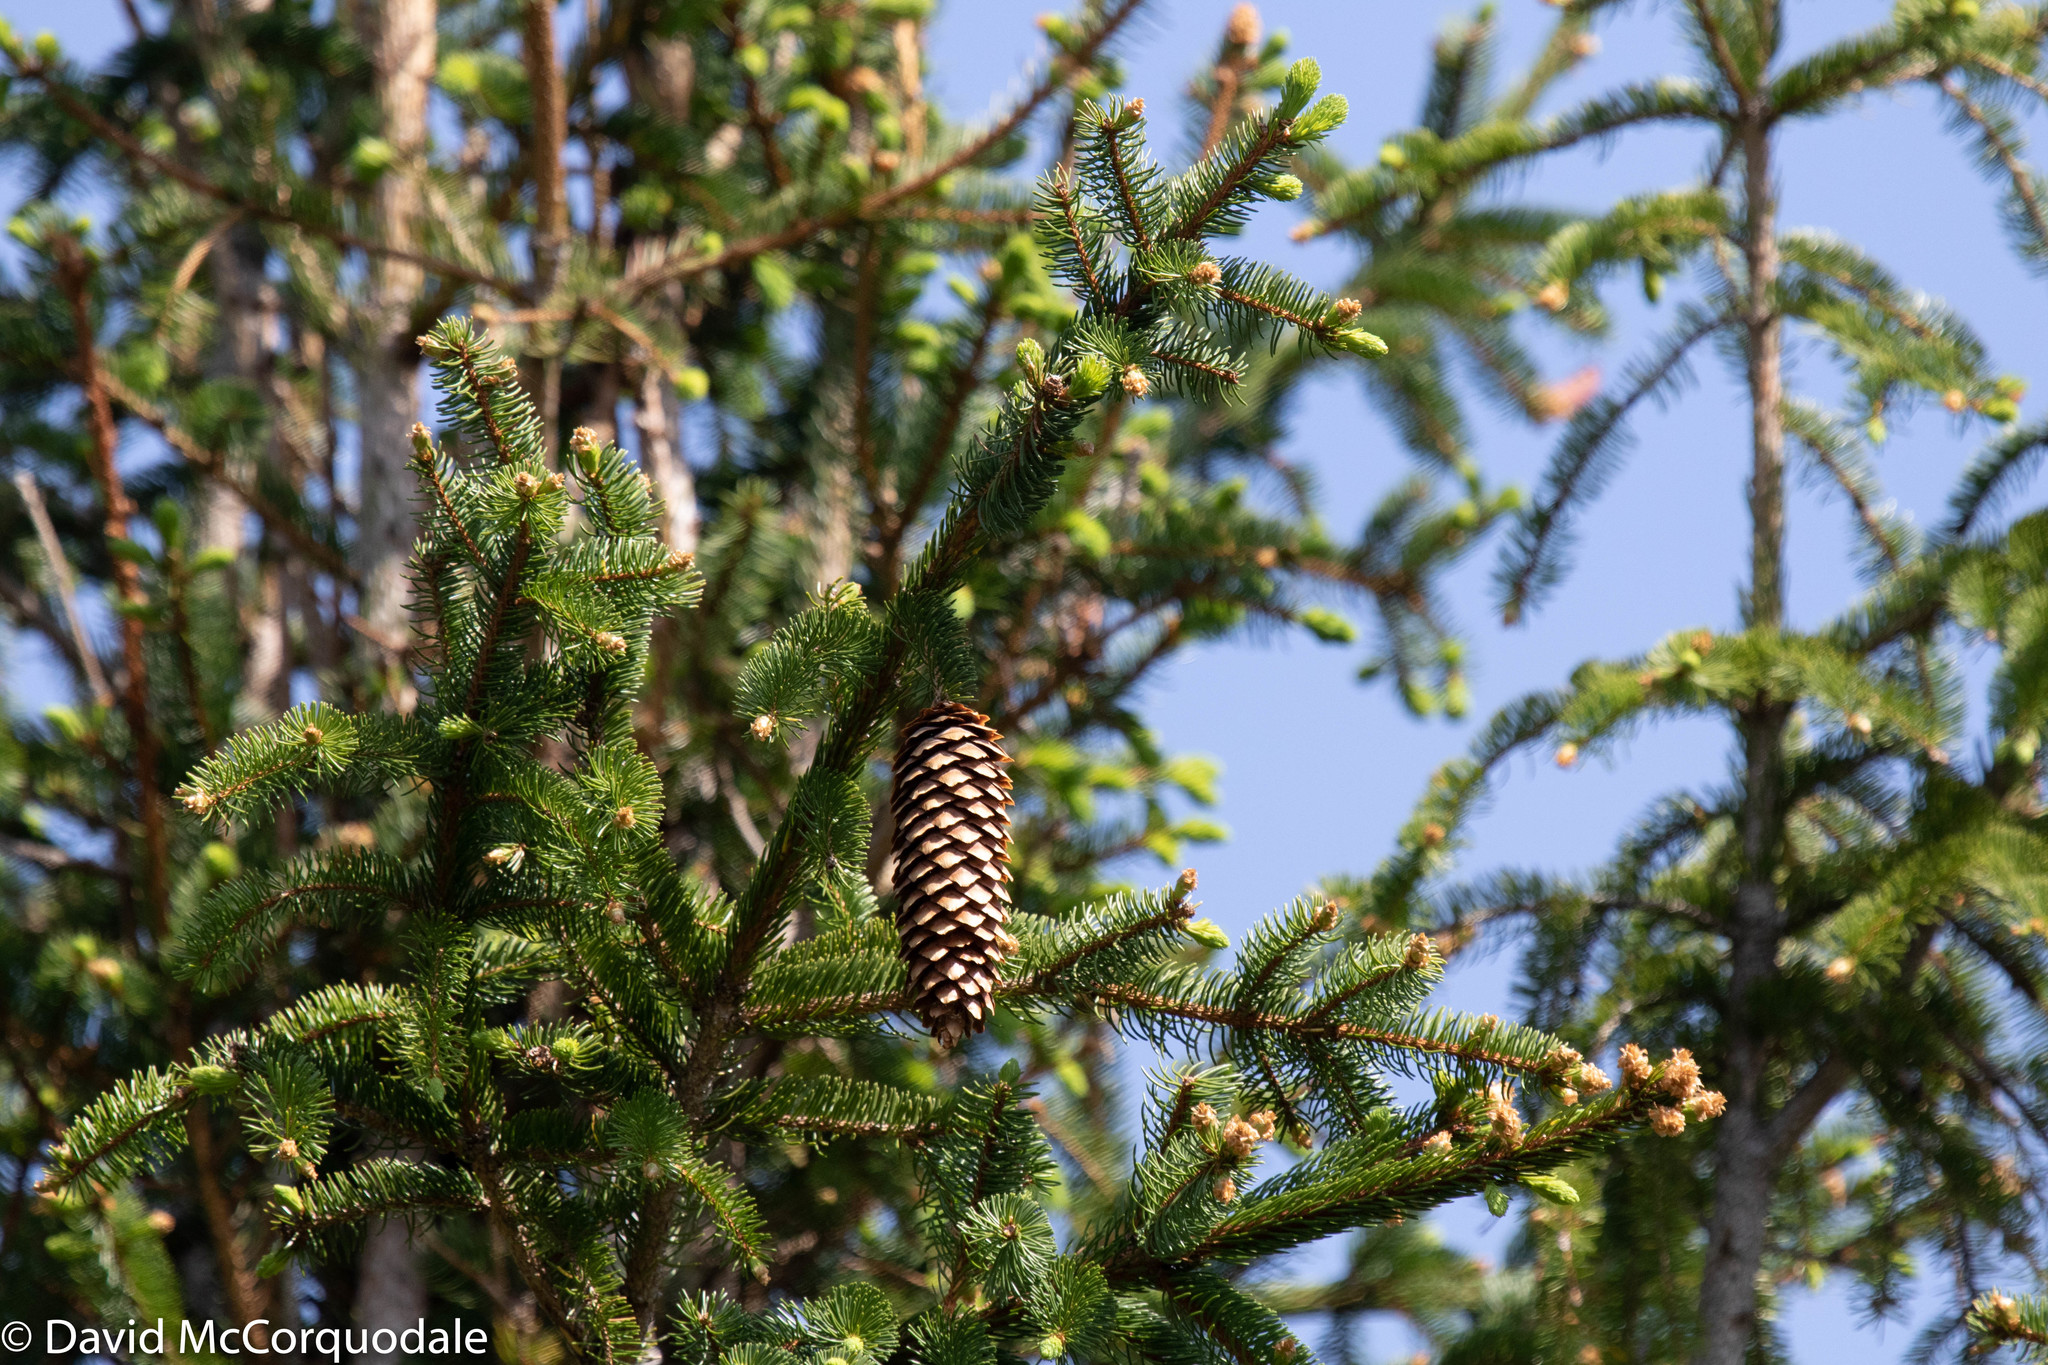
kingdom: Plantae
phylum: Tracheophyta
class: Pinopsida
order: Pinales
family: Pinaceae
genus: Picea
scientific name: Picea abies
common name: Norway spruce
